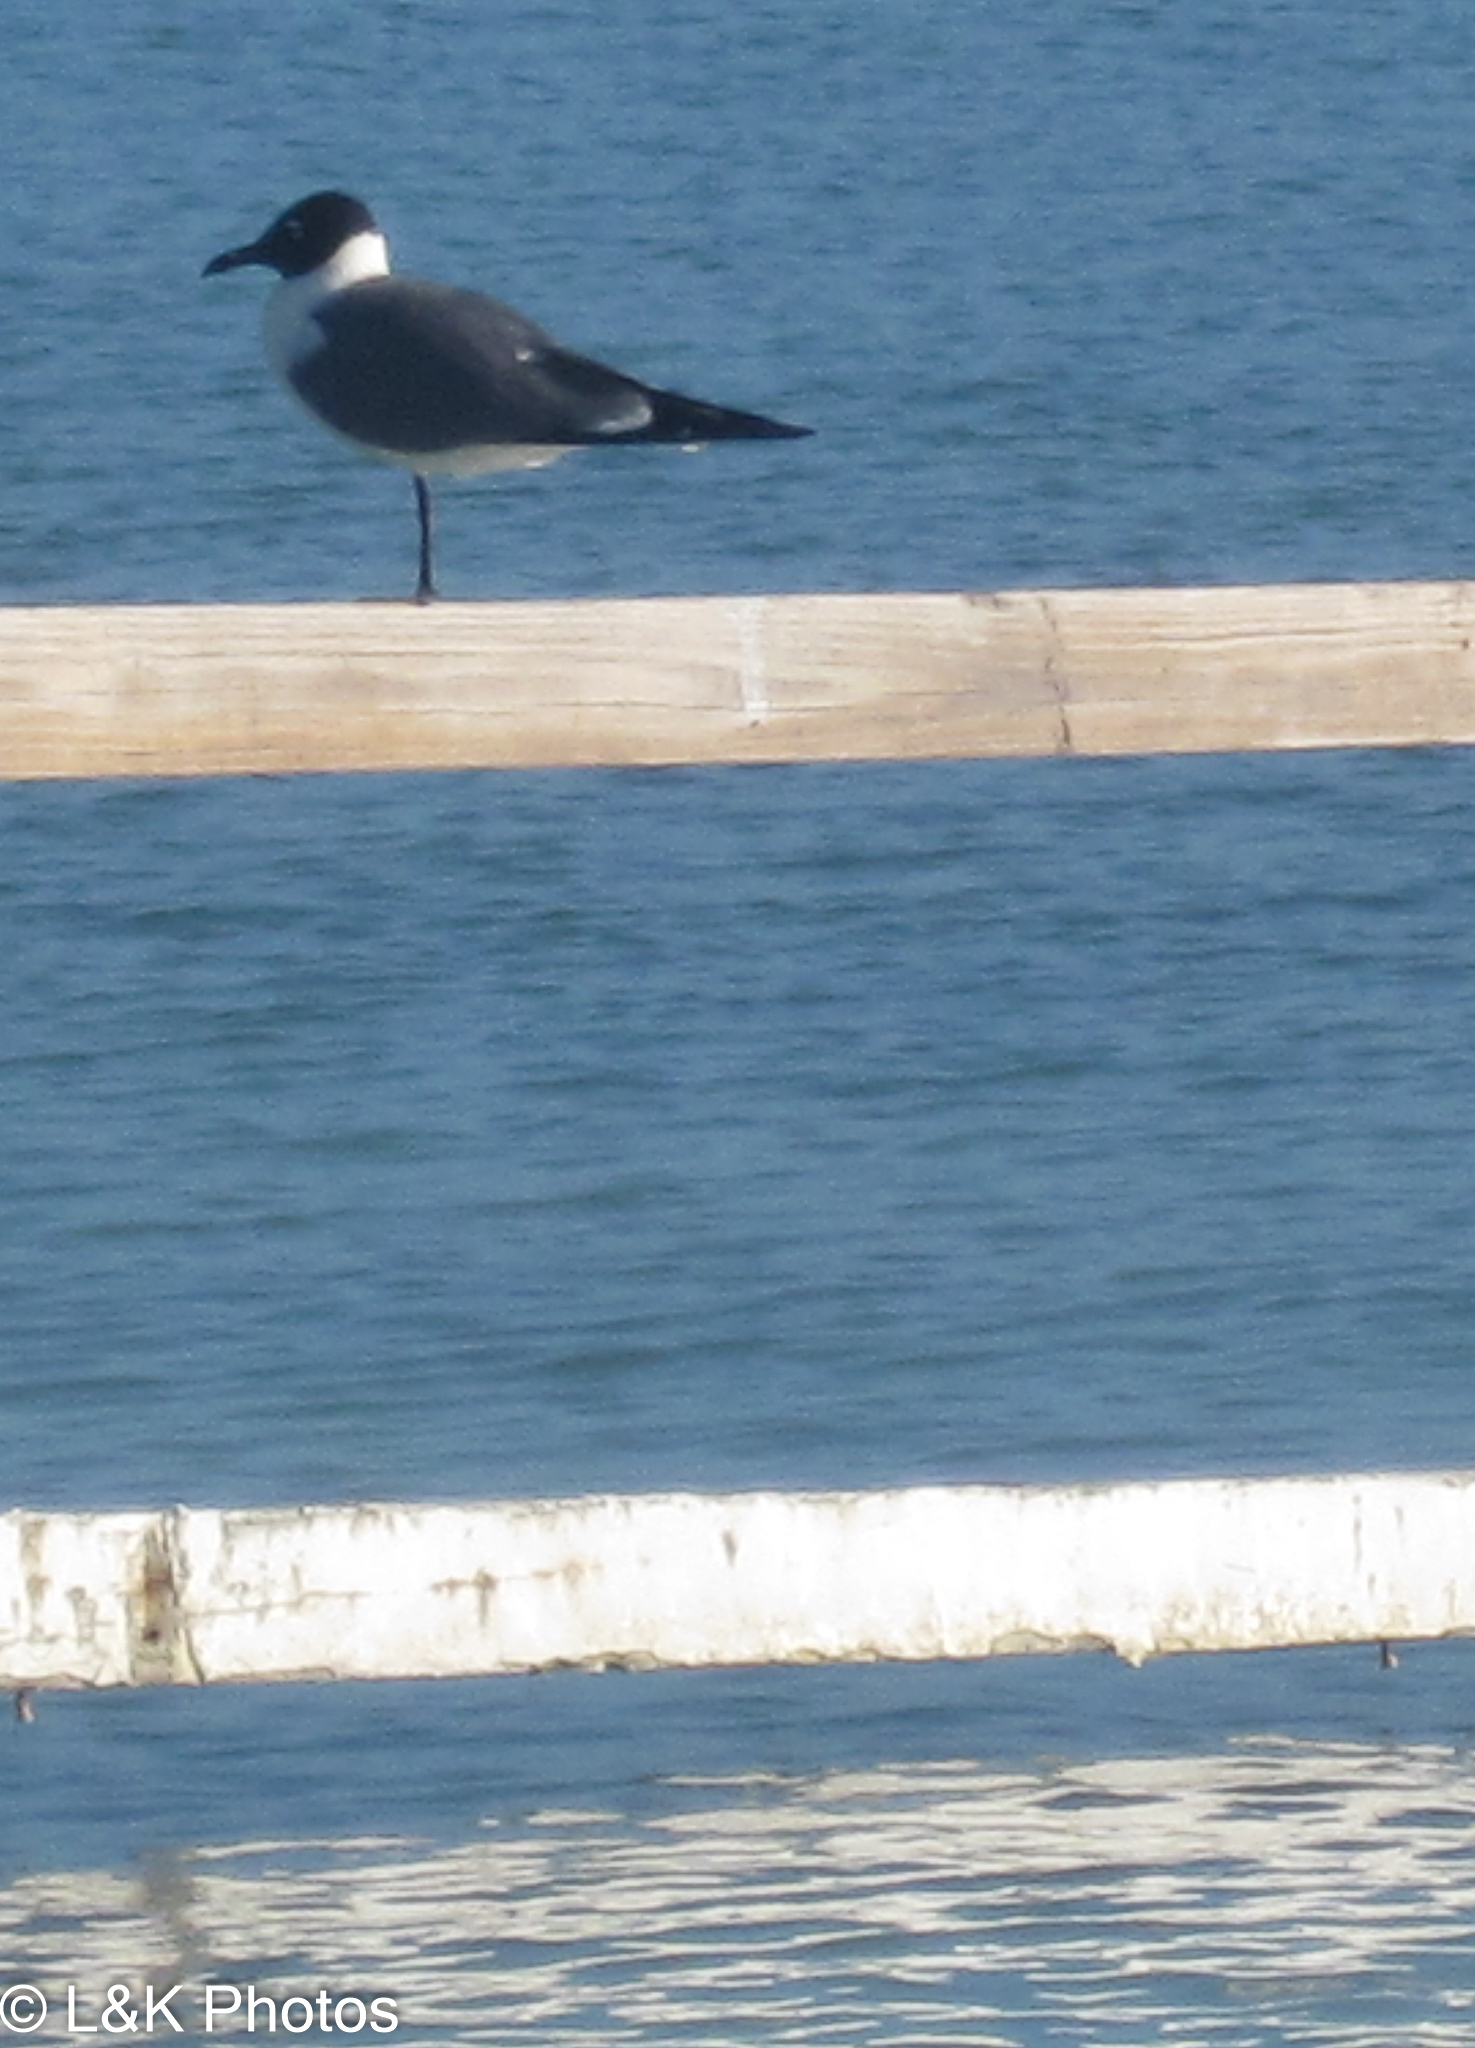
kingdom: Animalia
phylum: Chordata
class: Aves
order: Charadriiformes
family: Laridae
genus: Leucophaeus
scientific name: Leucophaeus atricilla
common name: Laughing gull
